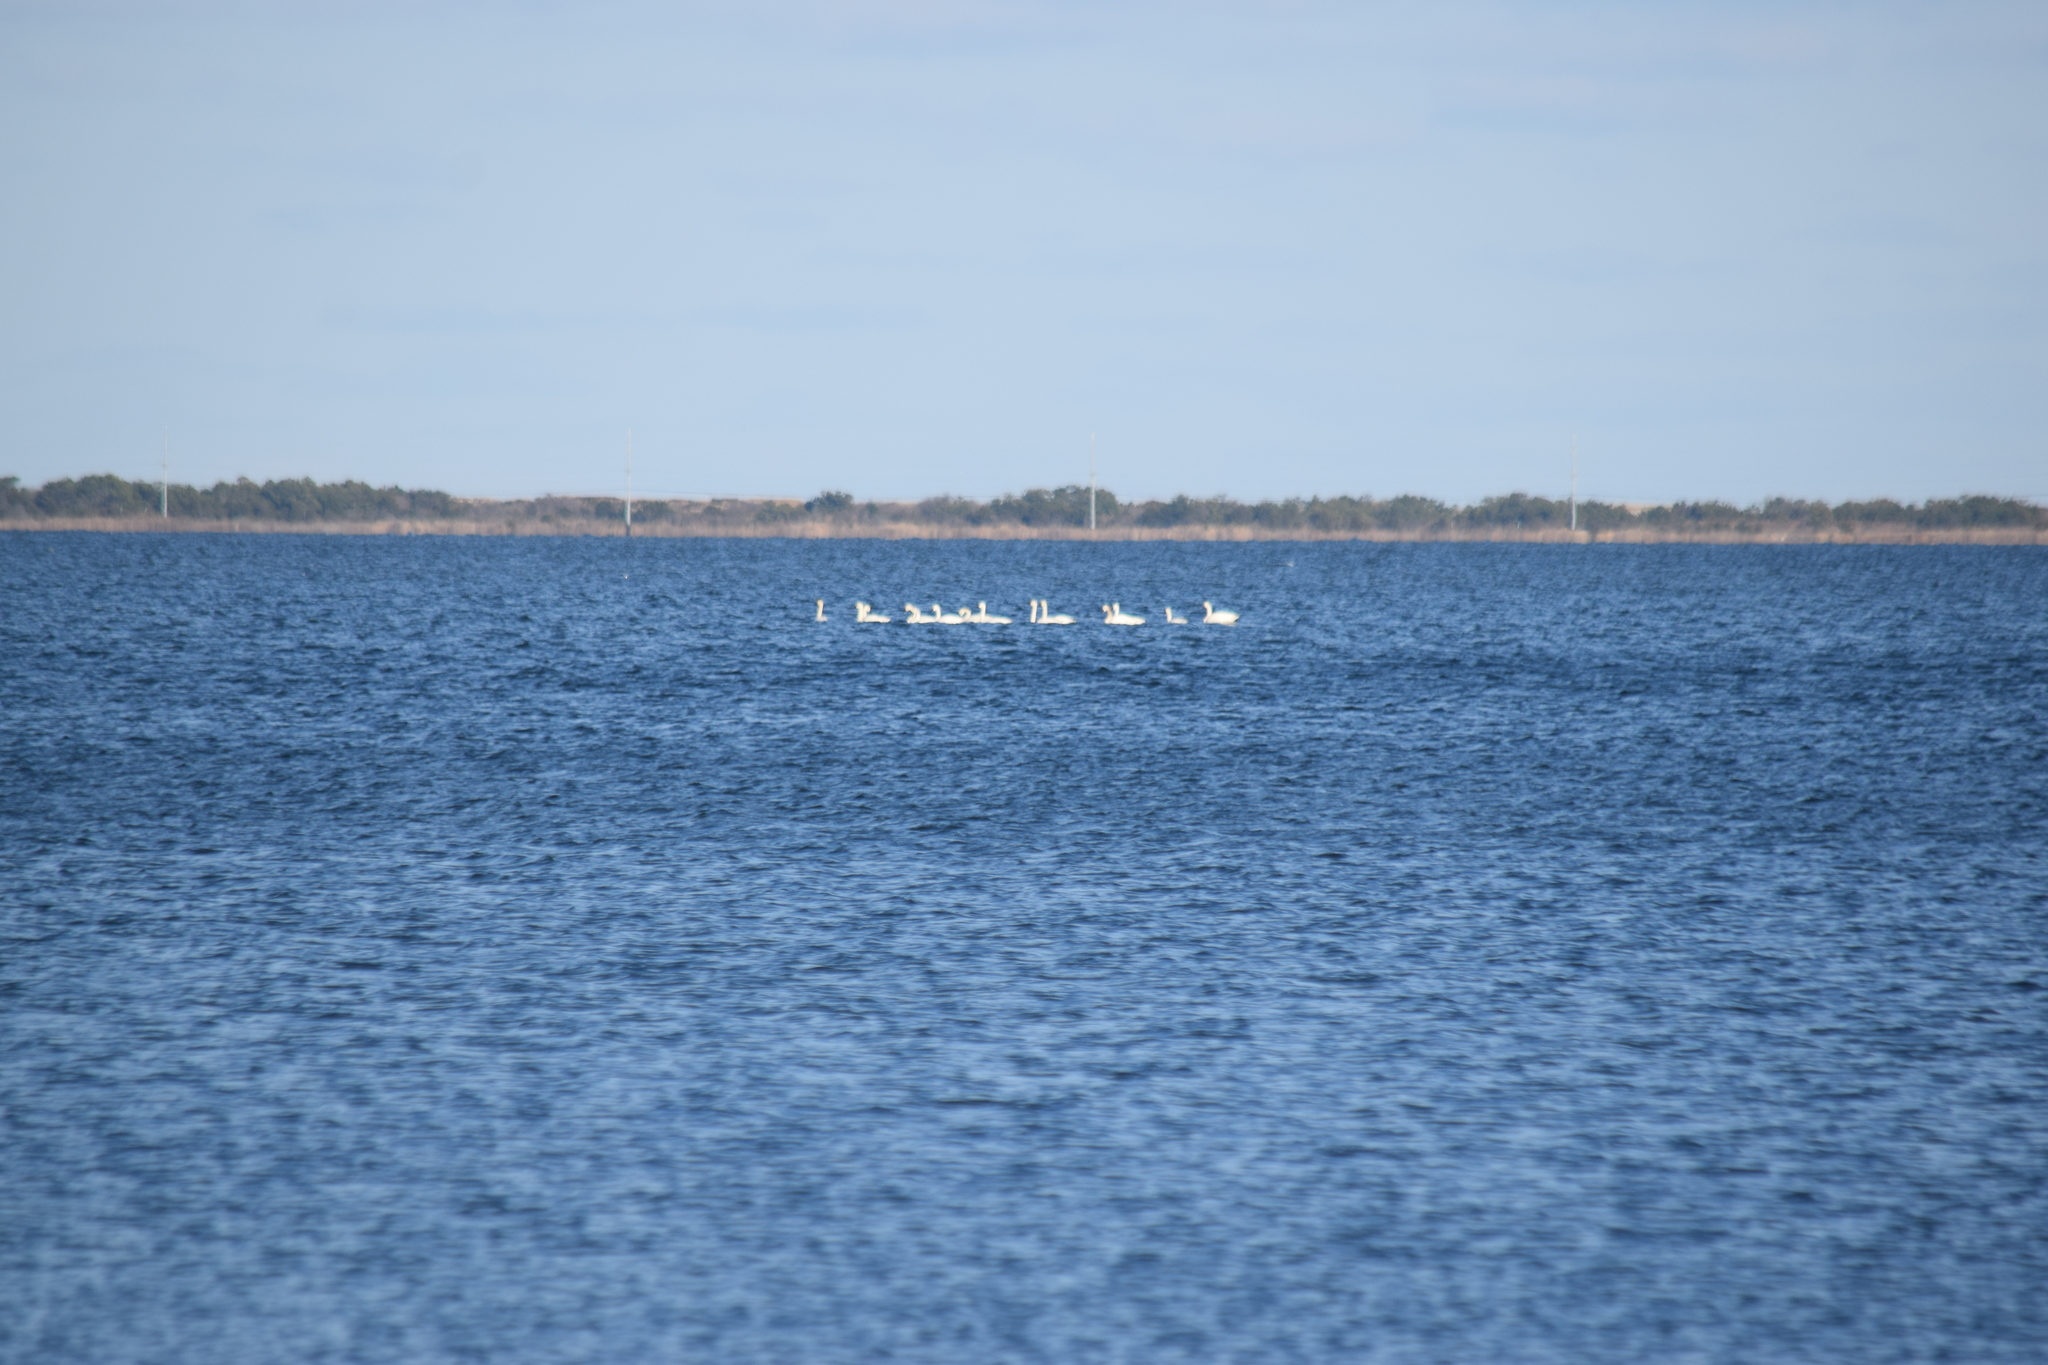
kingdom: Animalia
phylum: Chordata
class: Aves
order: Anseriformes
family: Anatidae
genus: Cygnus
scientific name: Cygnus columbianus
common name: Tundra swan
